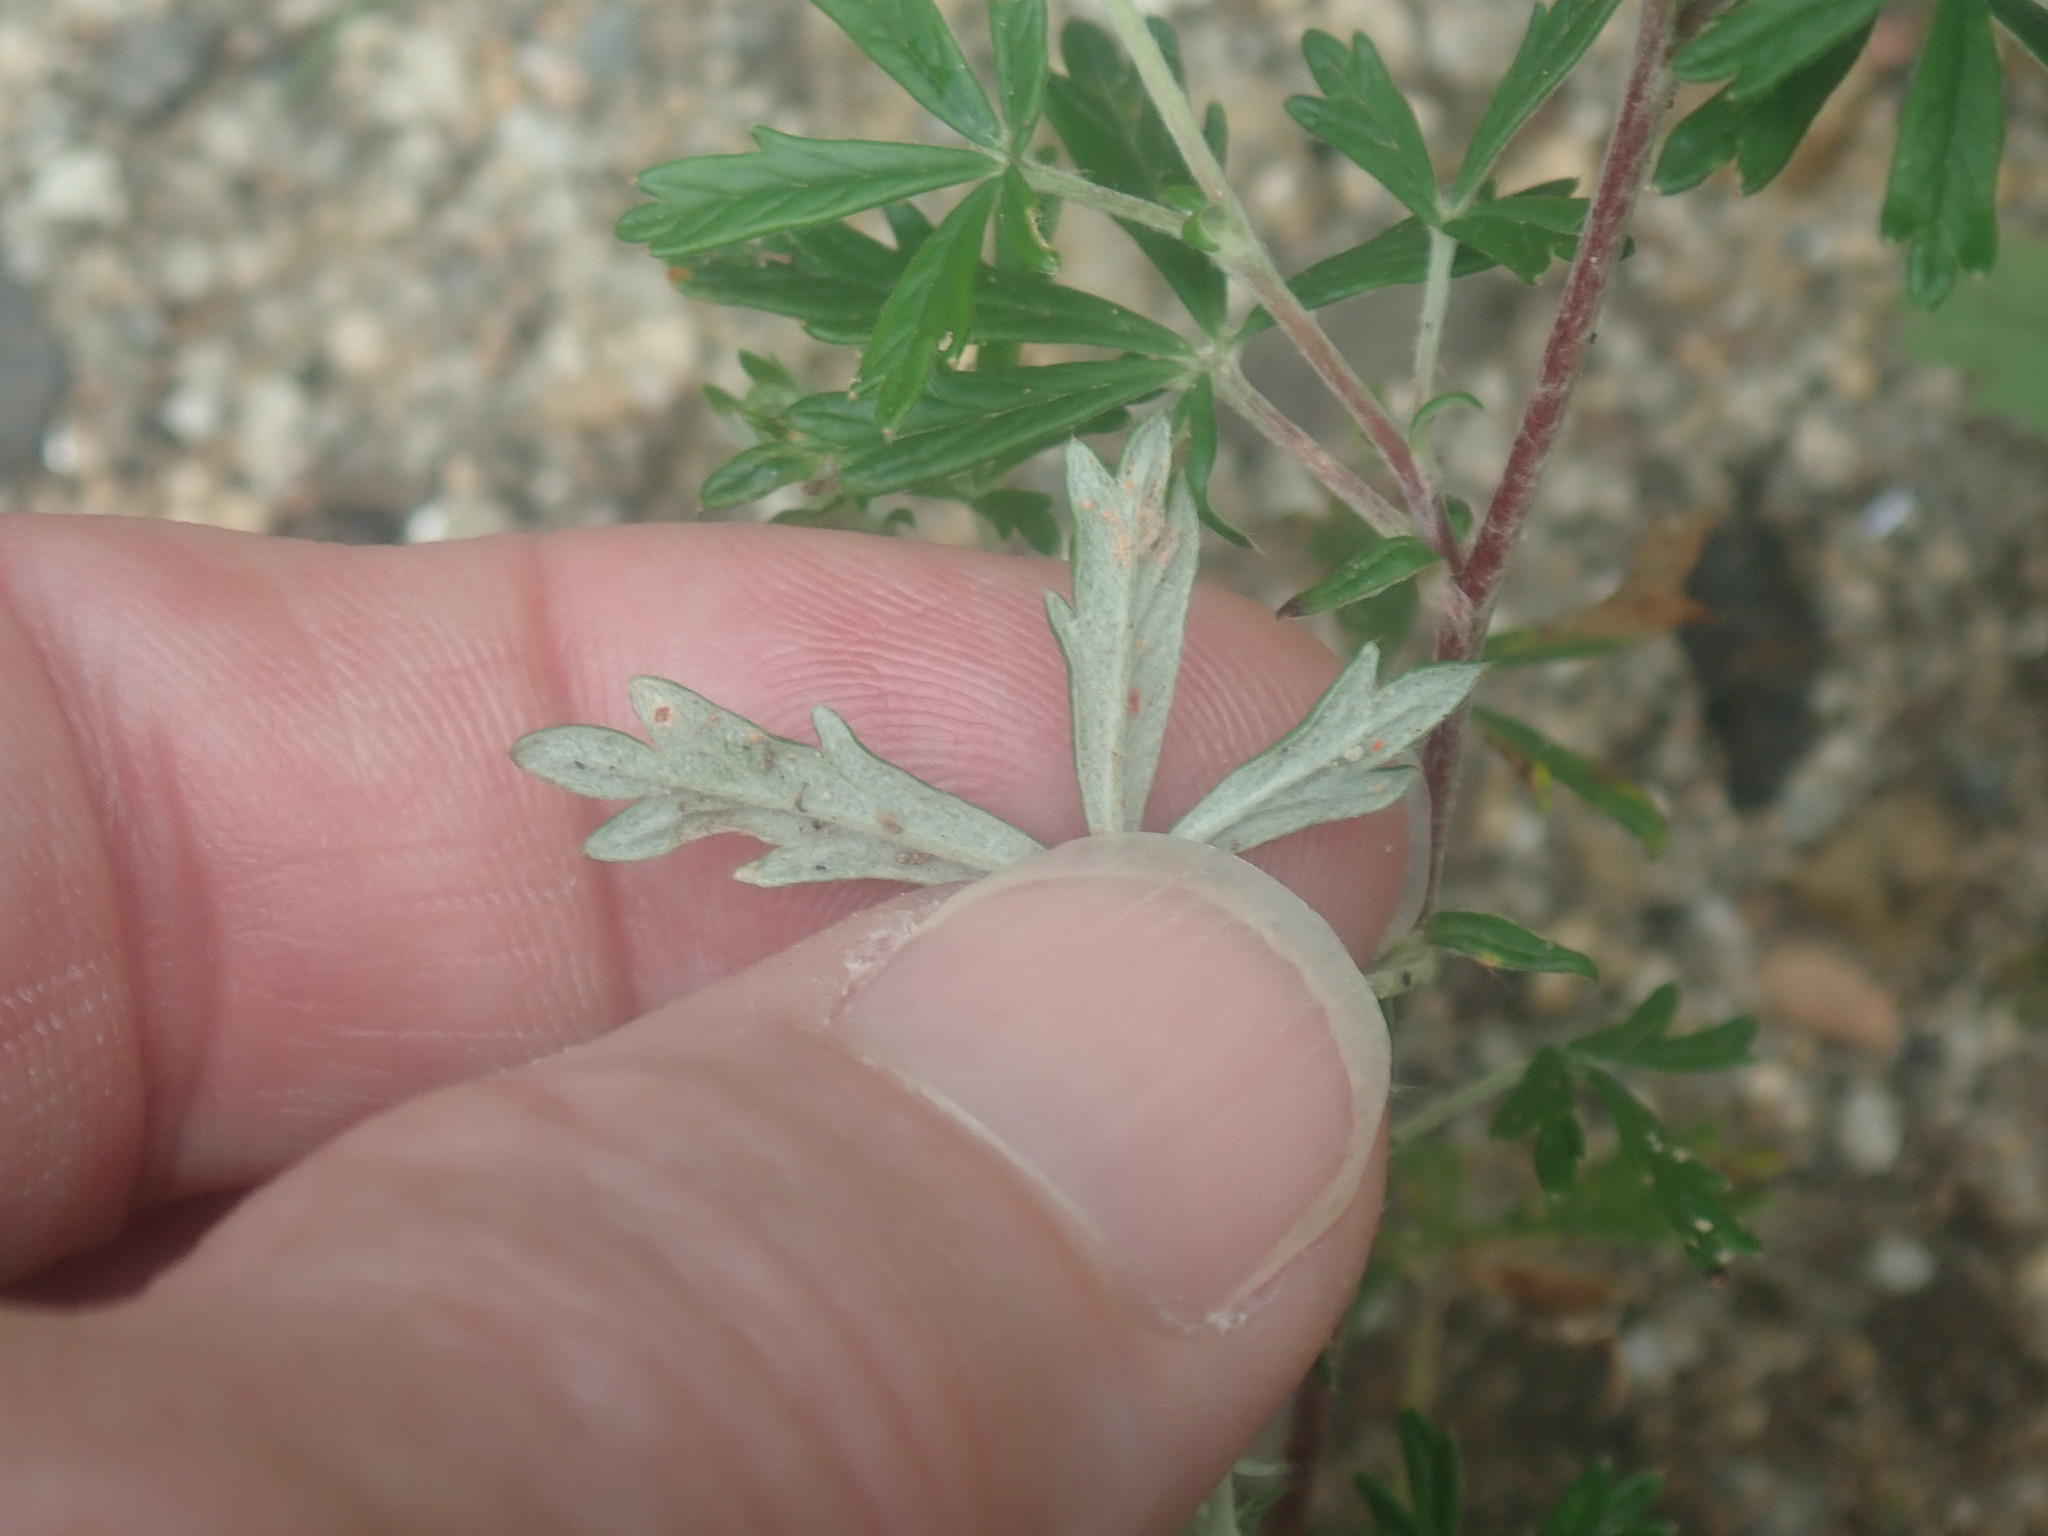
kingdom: Plantae
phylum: Tracheophyta
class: Magnoliopsida
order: Rosales
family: Rosaceae
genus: Potentilla
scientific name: Potentilla argentea
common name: Hoary cinquefoil
